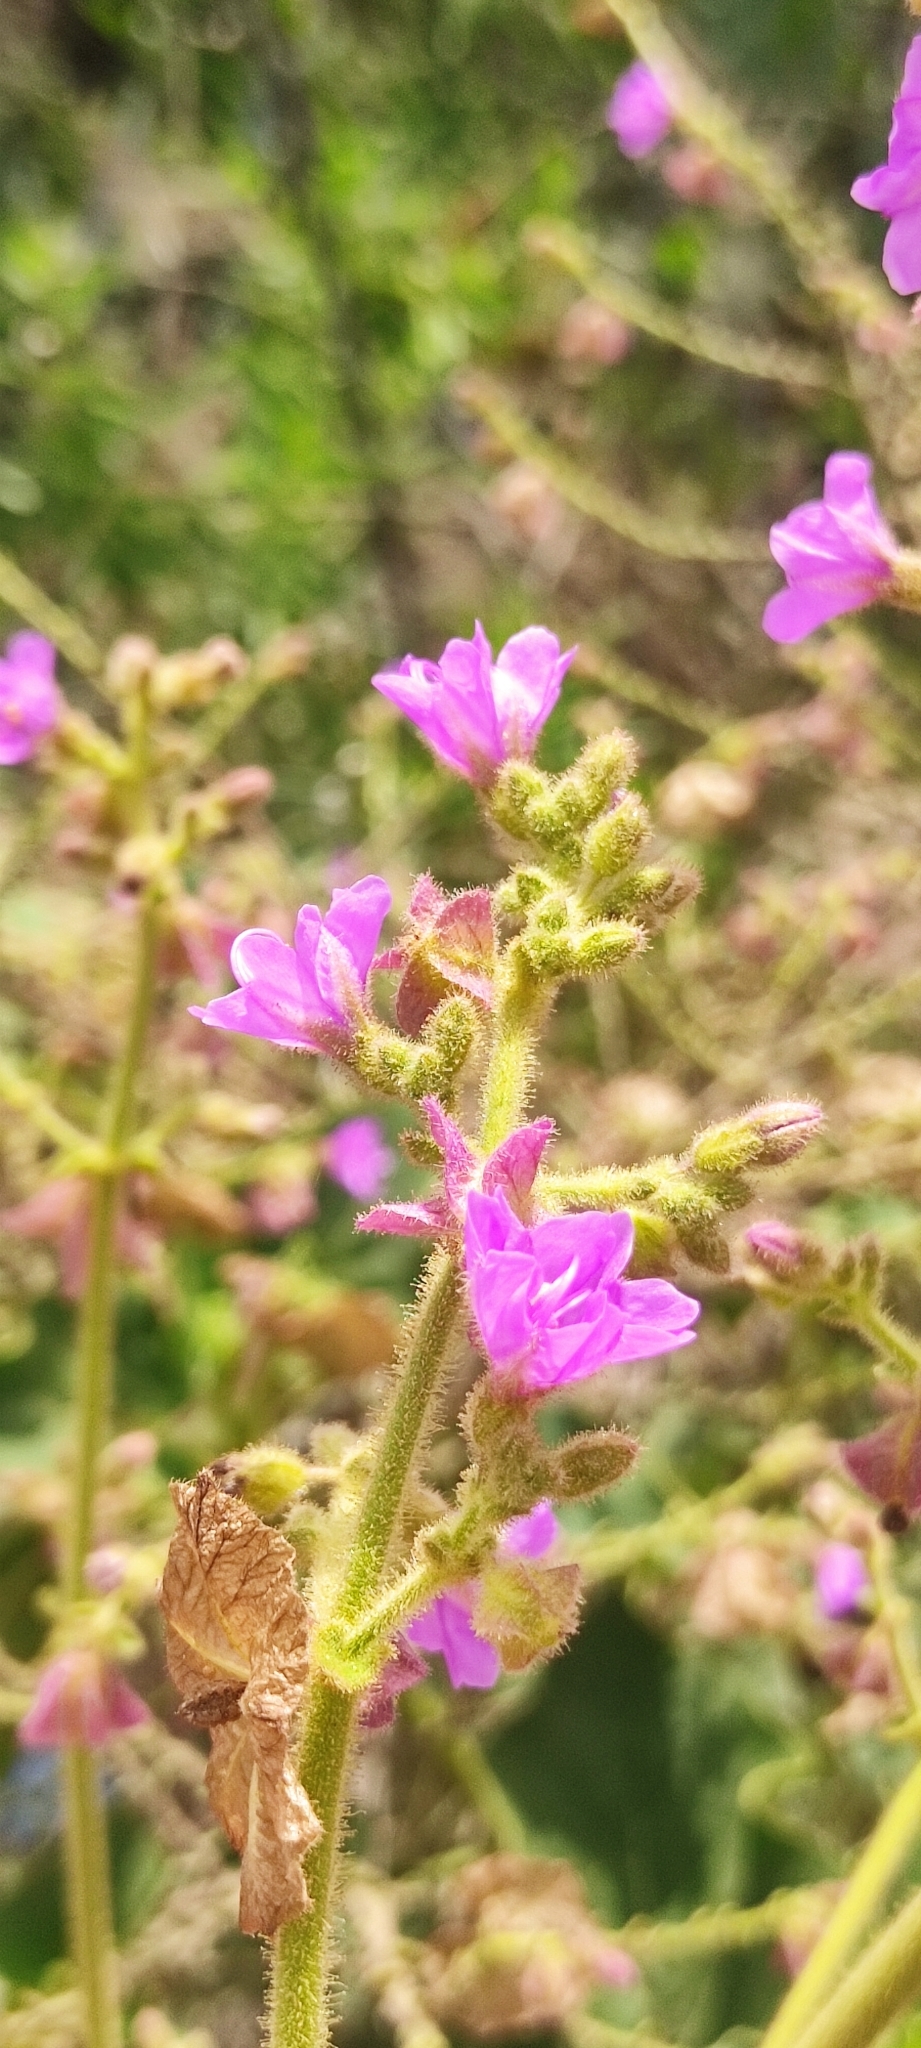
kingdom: Plantae
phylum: Tracheophyta
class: Magnoliopsida
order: Caryophyllales
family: Nyctaginaceae
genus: Mirabilis
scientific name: Mirabilis viscosa
